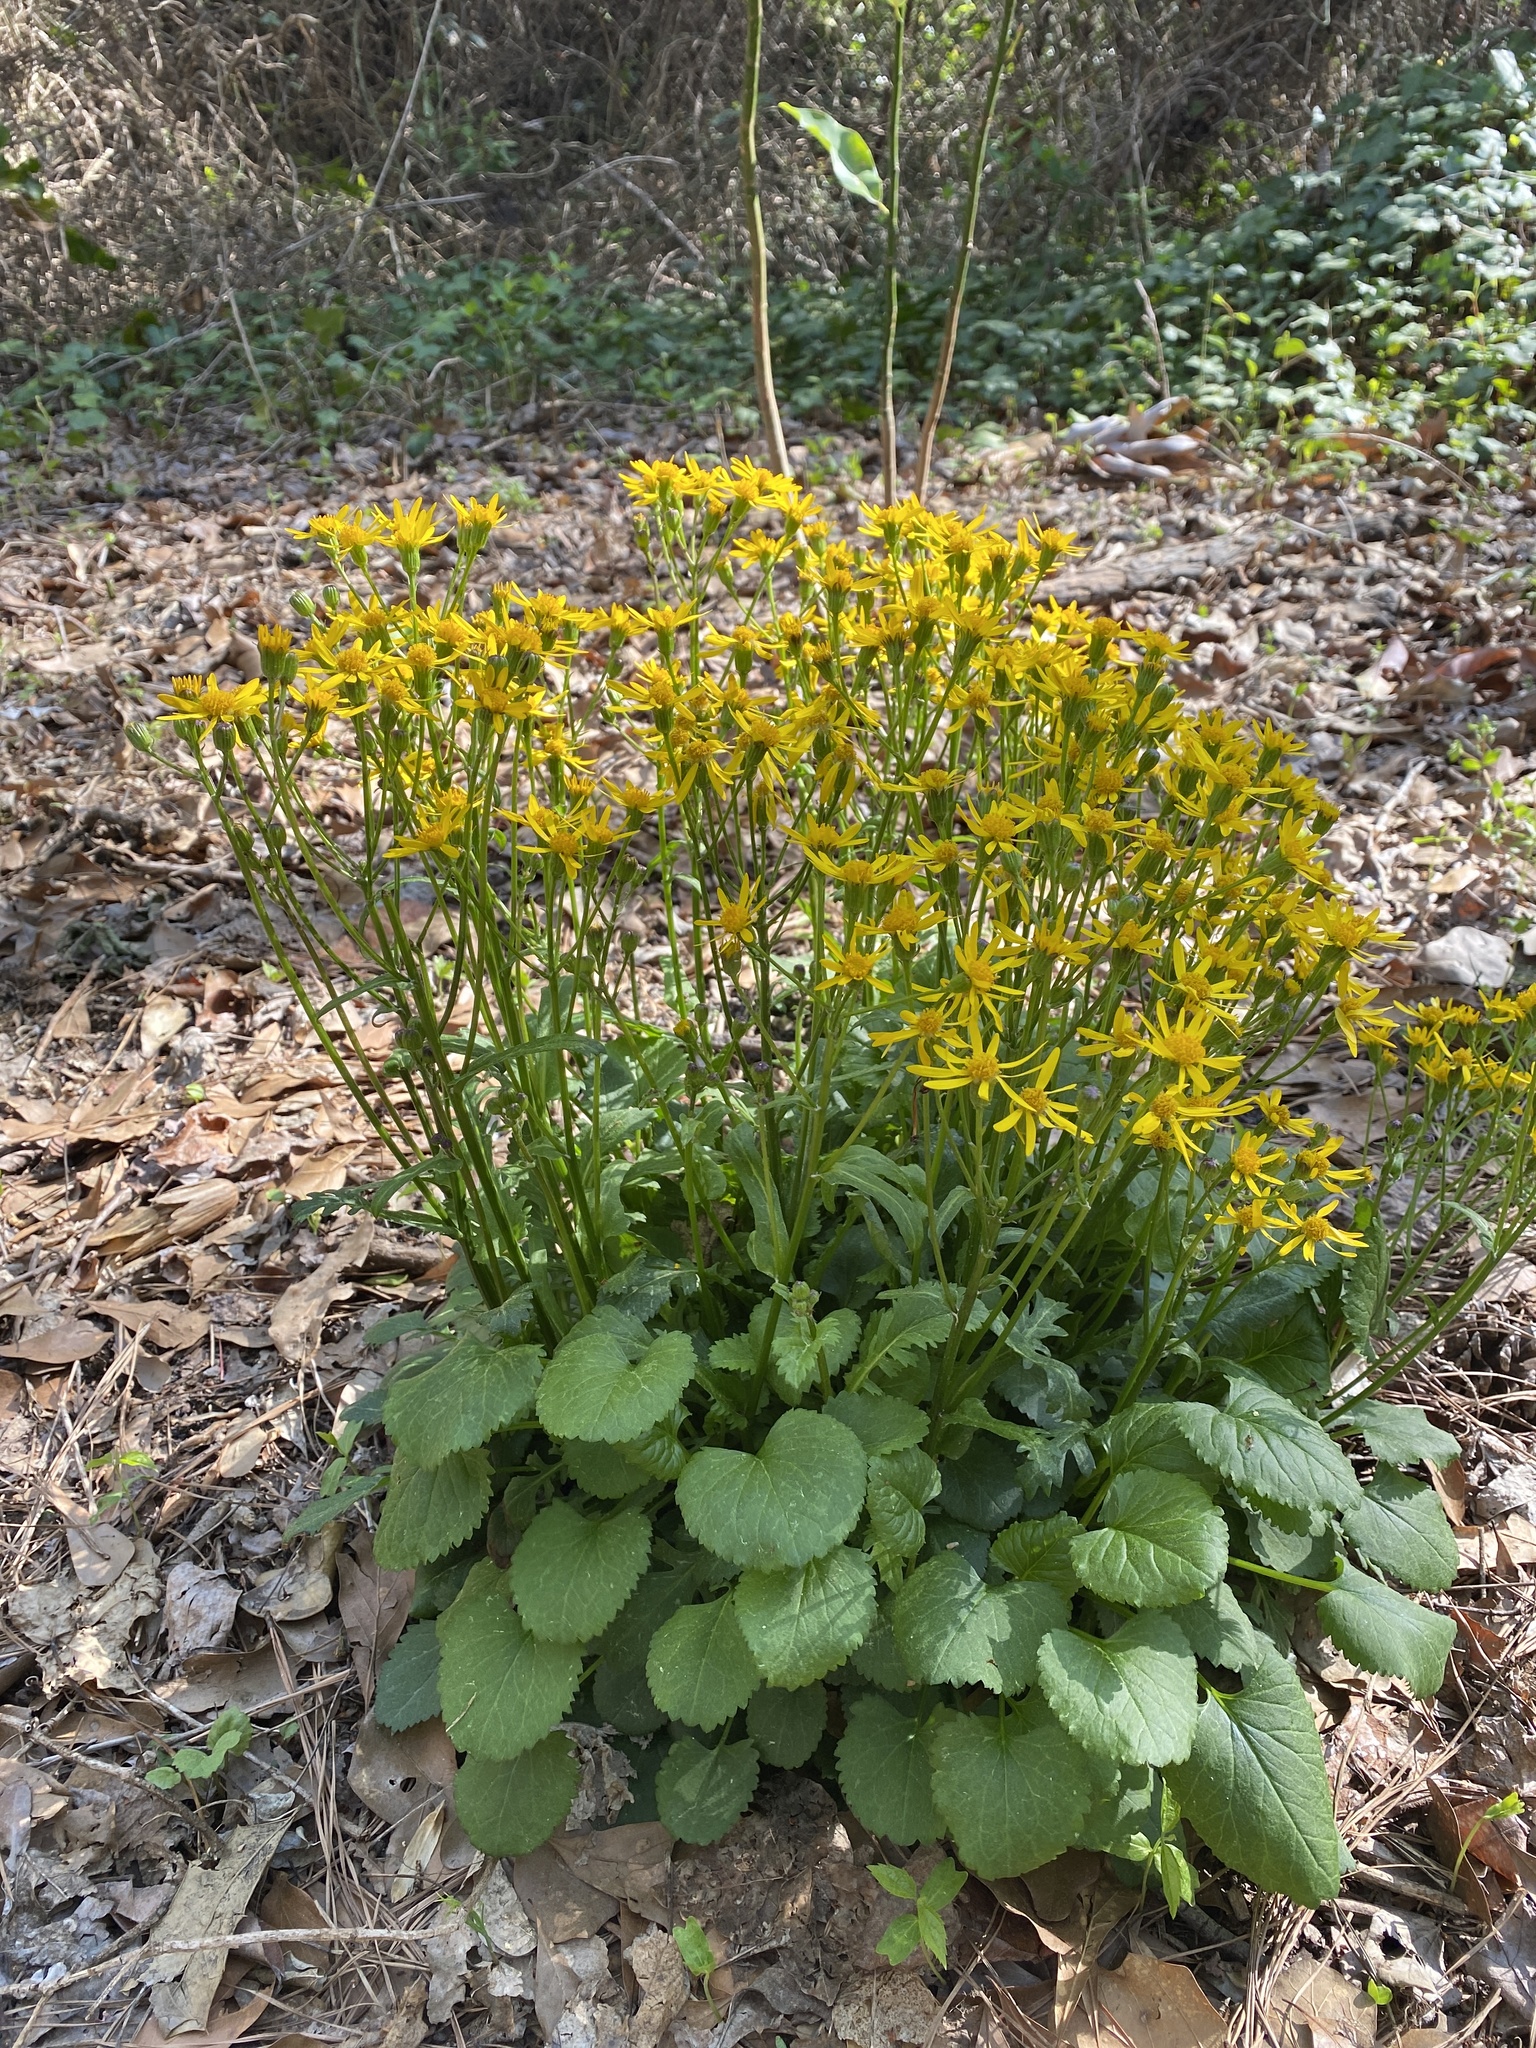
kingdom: Plantae
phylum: Tracheophyta
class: Magnoliopsida
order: Asterales
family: Asteraceae
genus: Packera
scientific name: Packera aurea
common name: Golden groundsel
